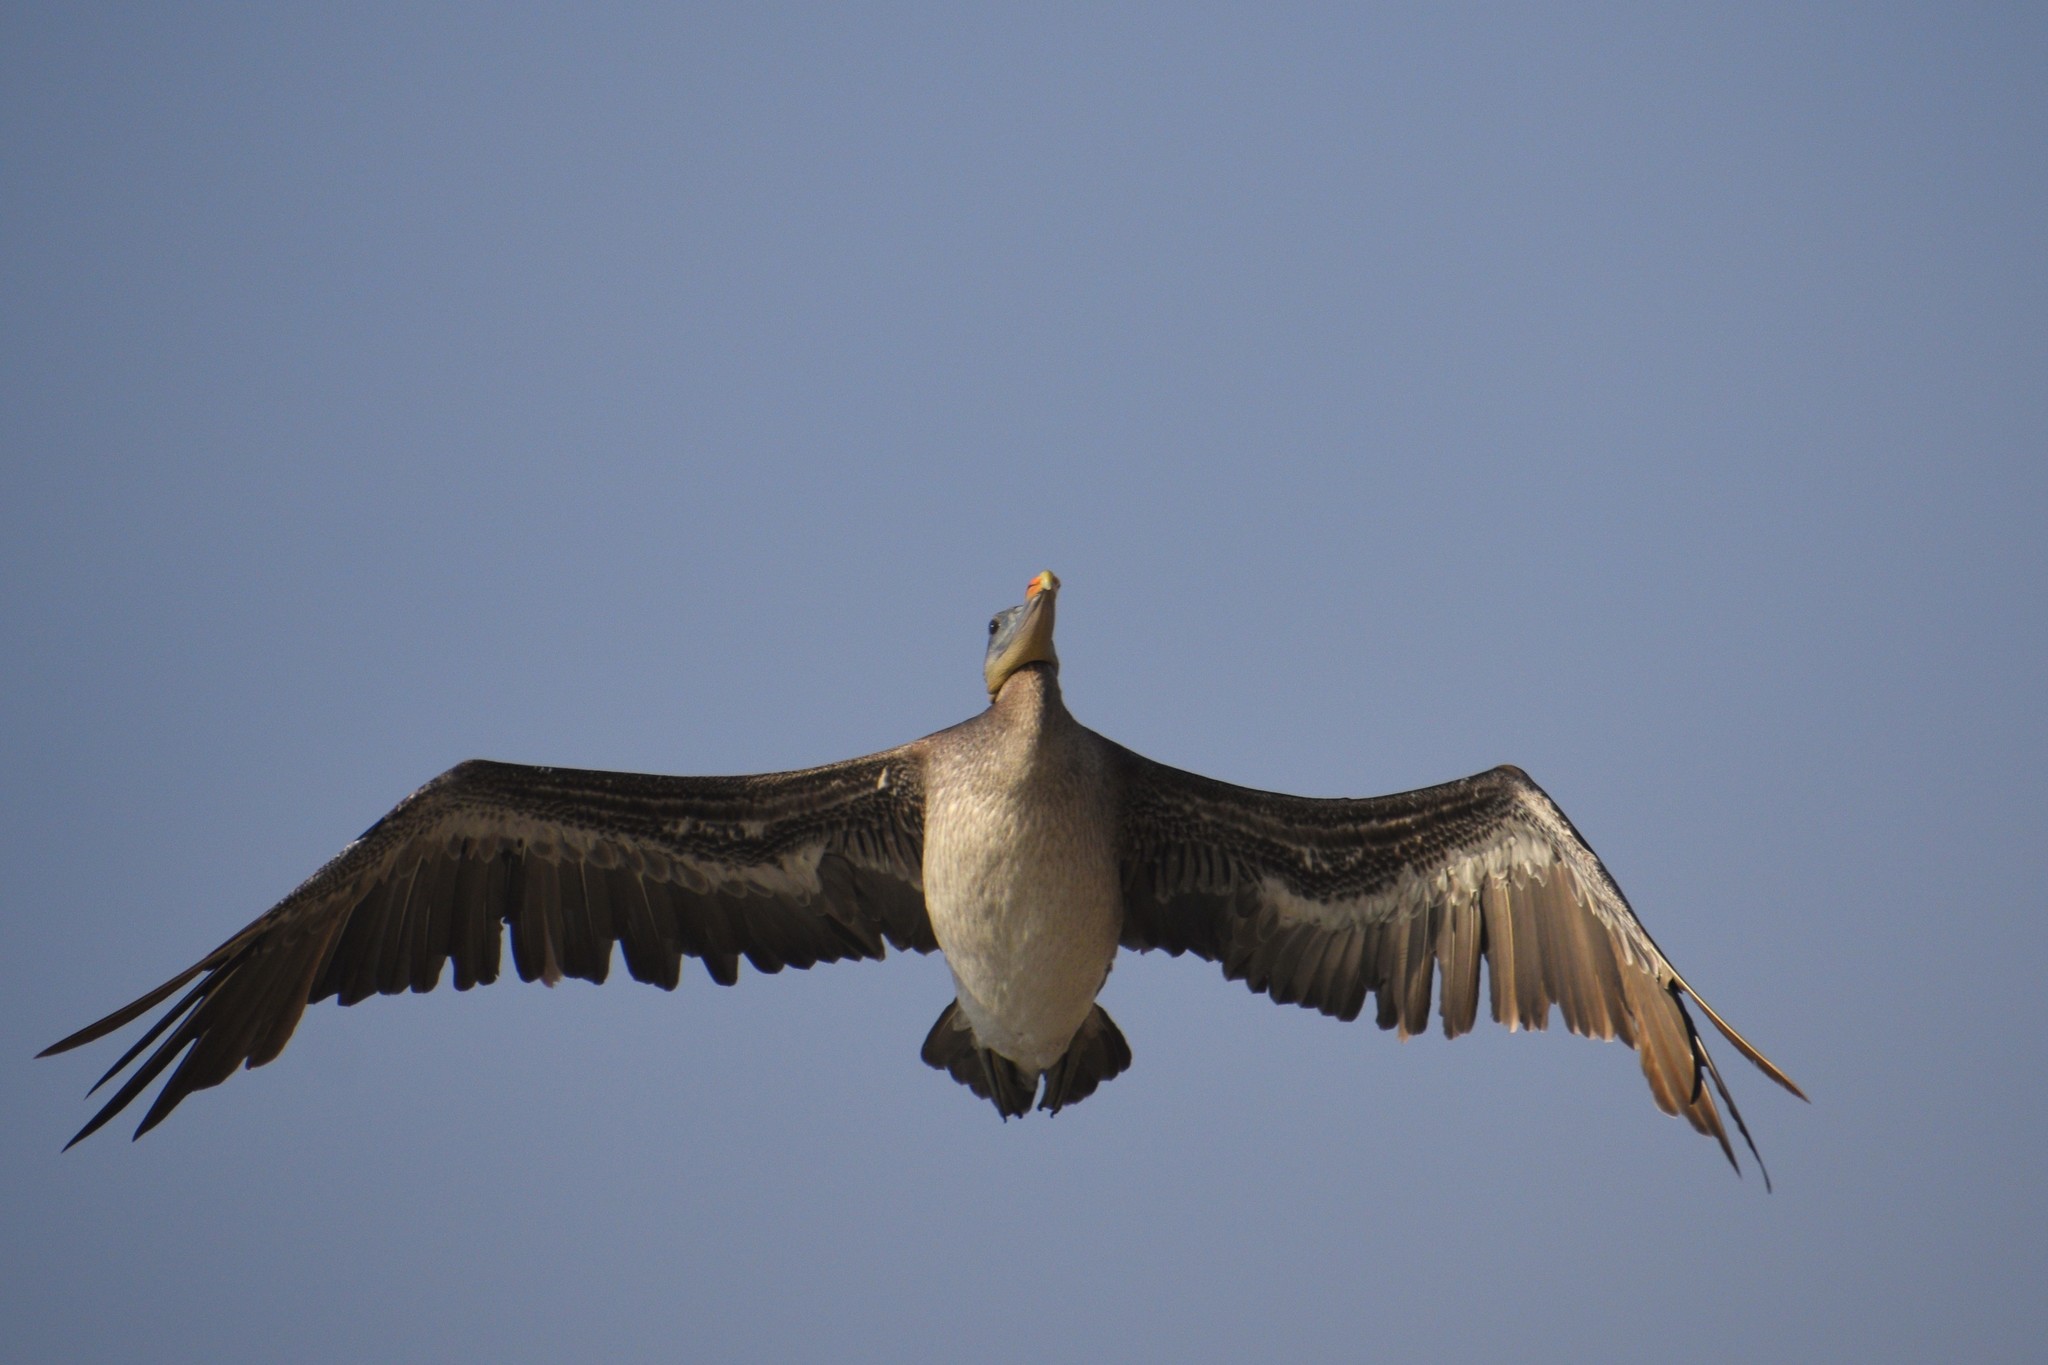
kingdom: Animalia
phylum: Chordata
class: Aves
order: Pelecaniformes
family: Pelecanidae
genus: Pelecanus
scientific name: Pelecanus occidentalis
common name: Brown pelican
